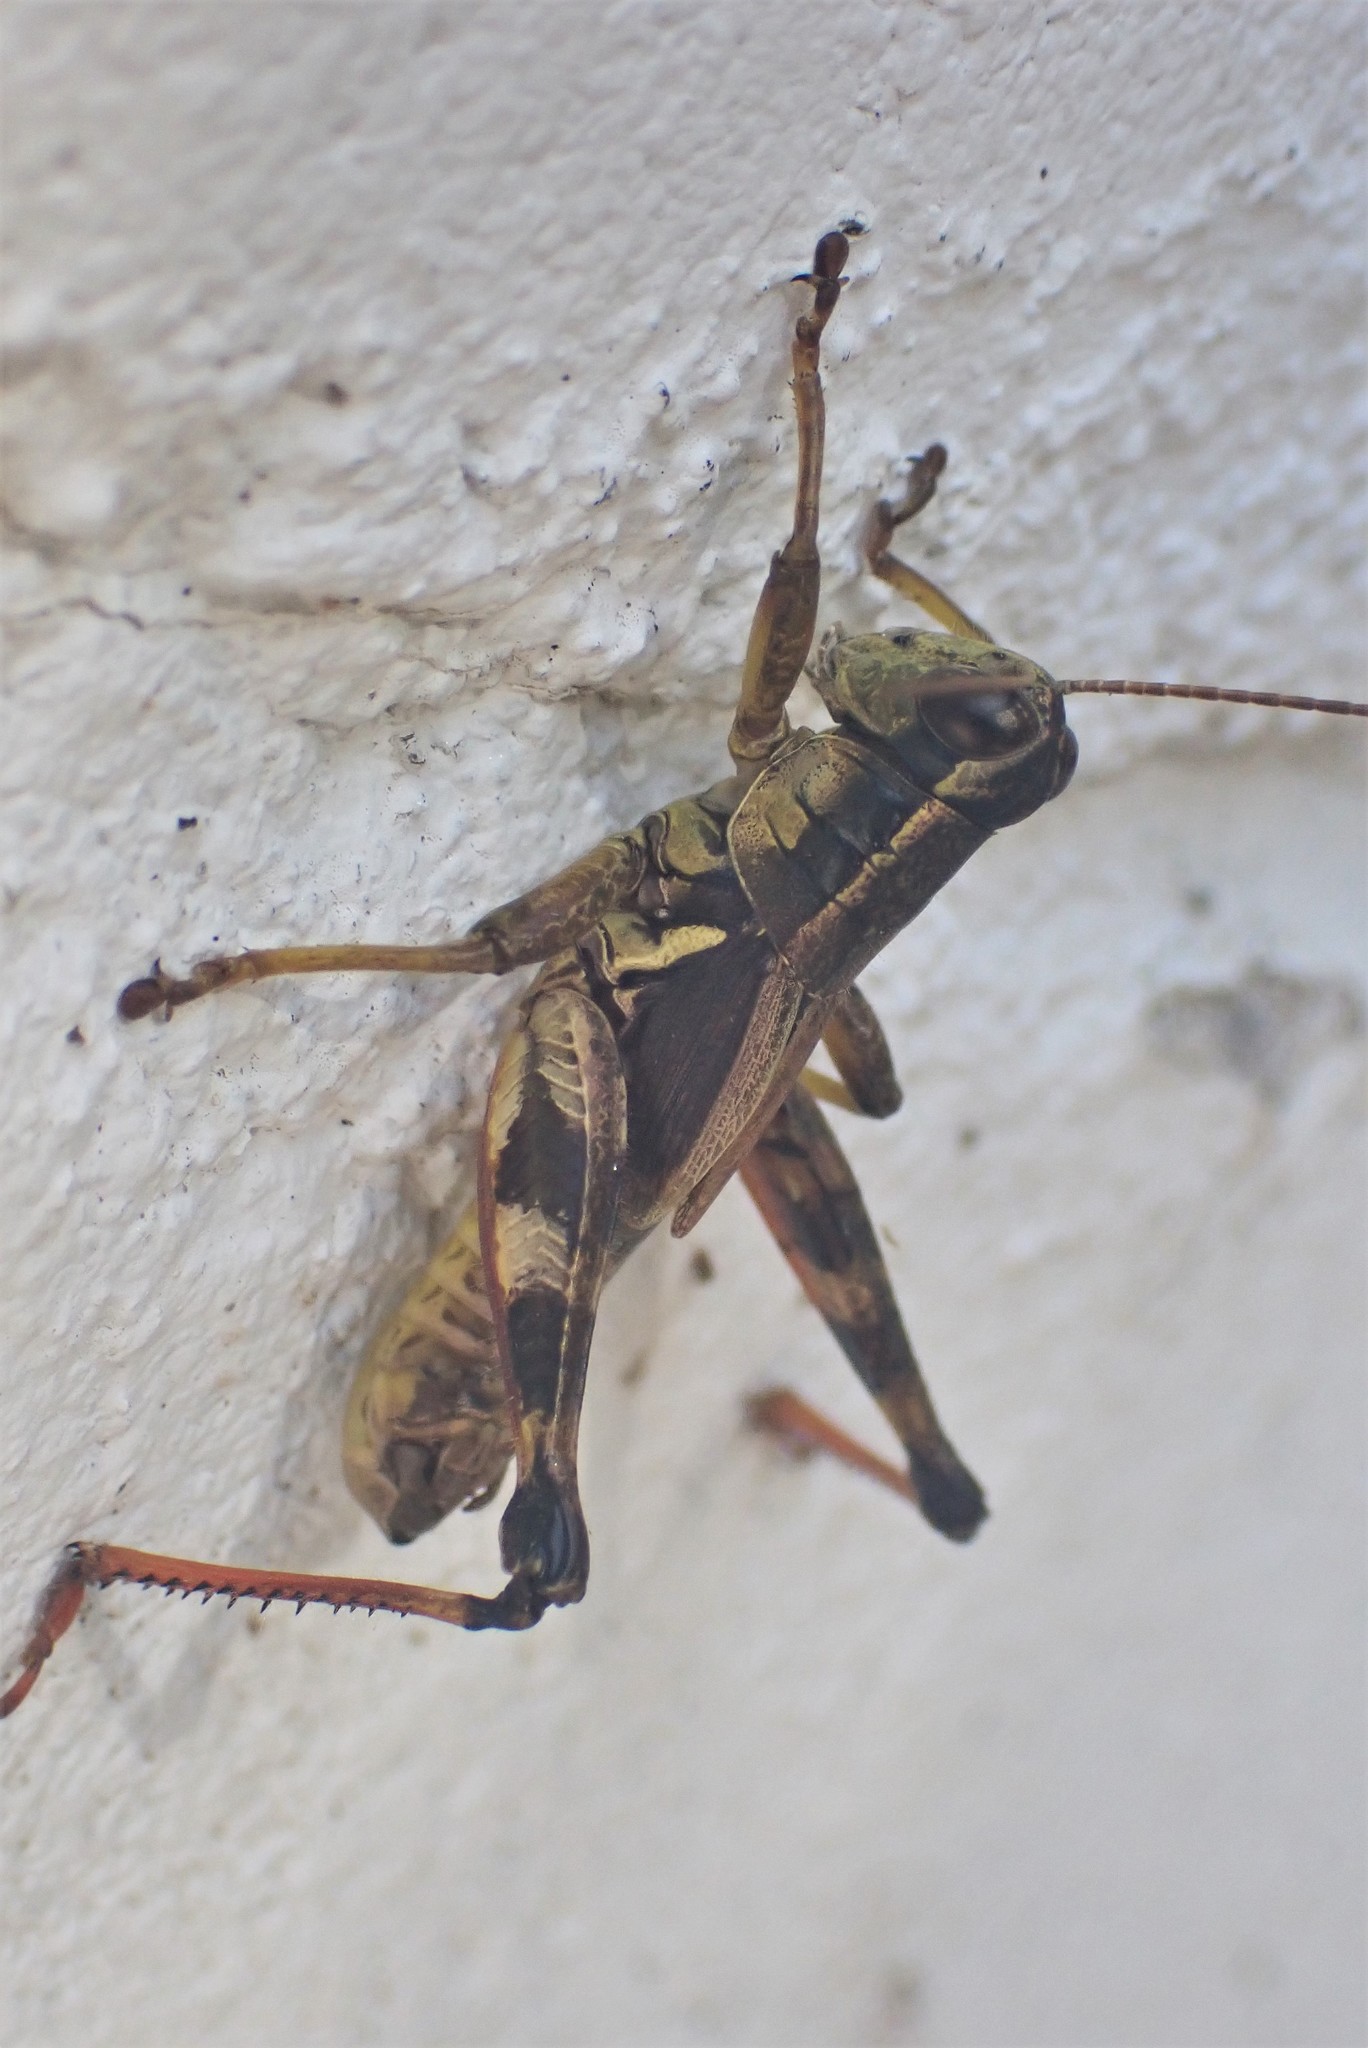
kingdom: Animalia
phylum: Arthropoda
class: Insecta
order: Orthoptera
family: Acrididae
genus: Melanoplus
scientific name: Melanoplus walshii
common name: Walsh's locust
